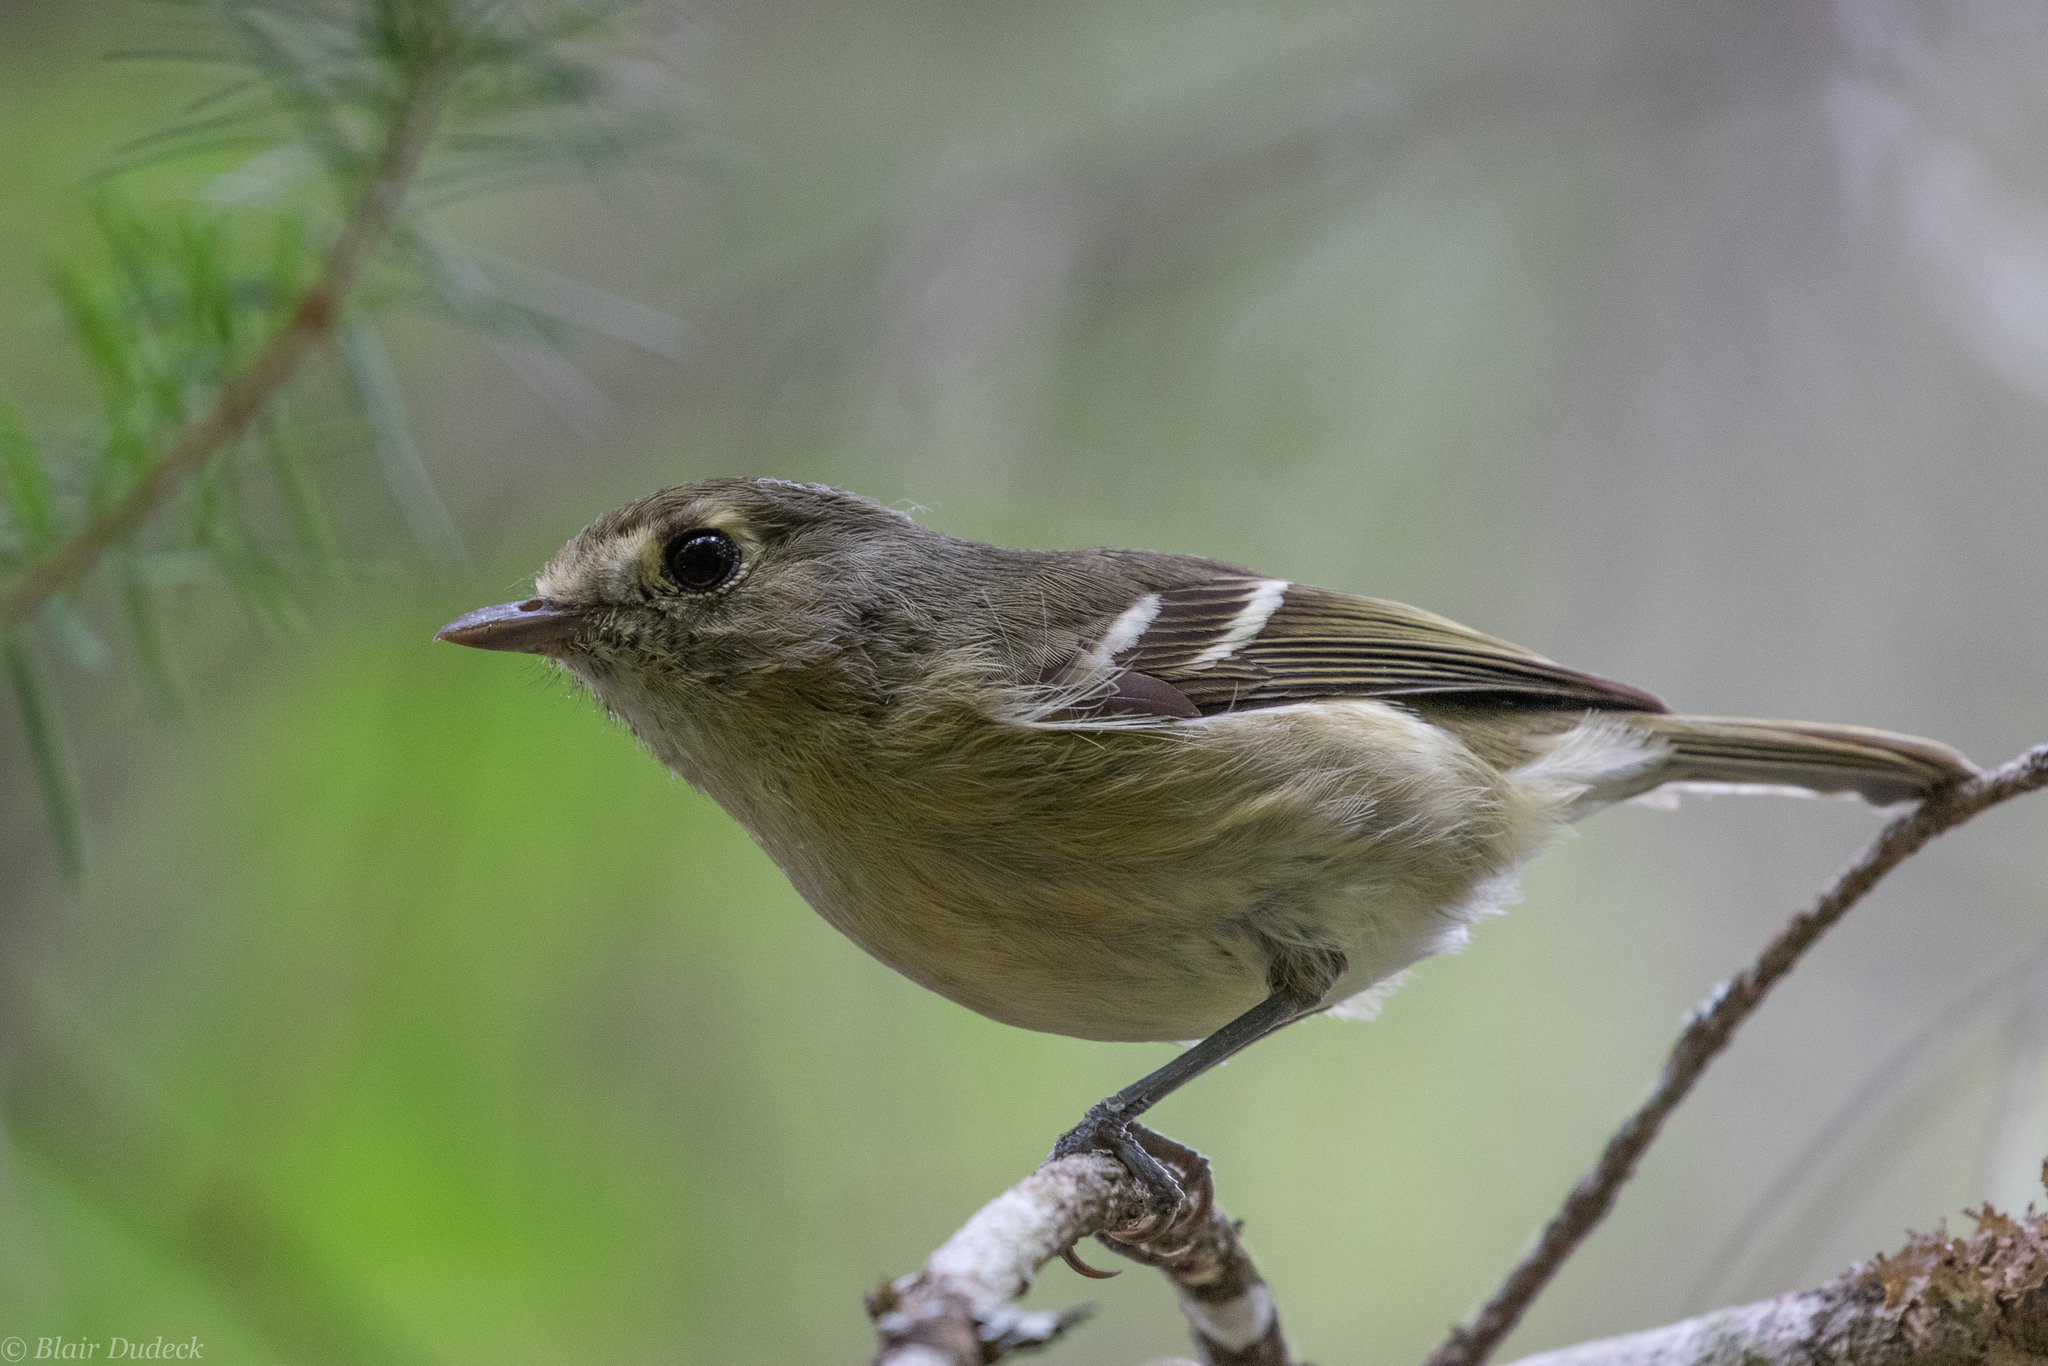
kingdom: Animalia
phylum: Chordata
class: Aves
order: Passeriformes
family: Vireonidae
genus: Vireo
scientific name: Vireo huttoni
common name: Hutton's vireo
